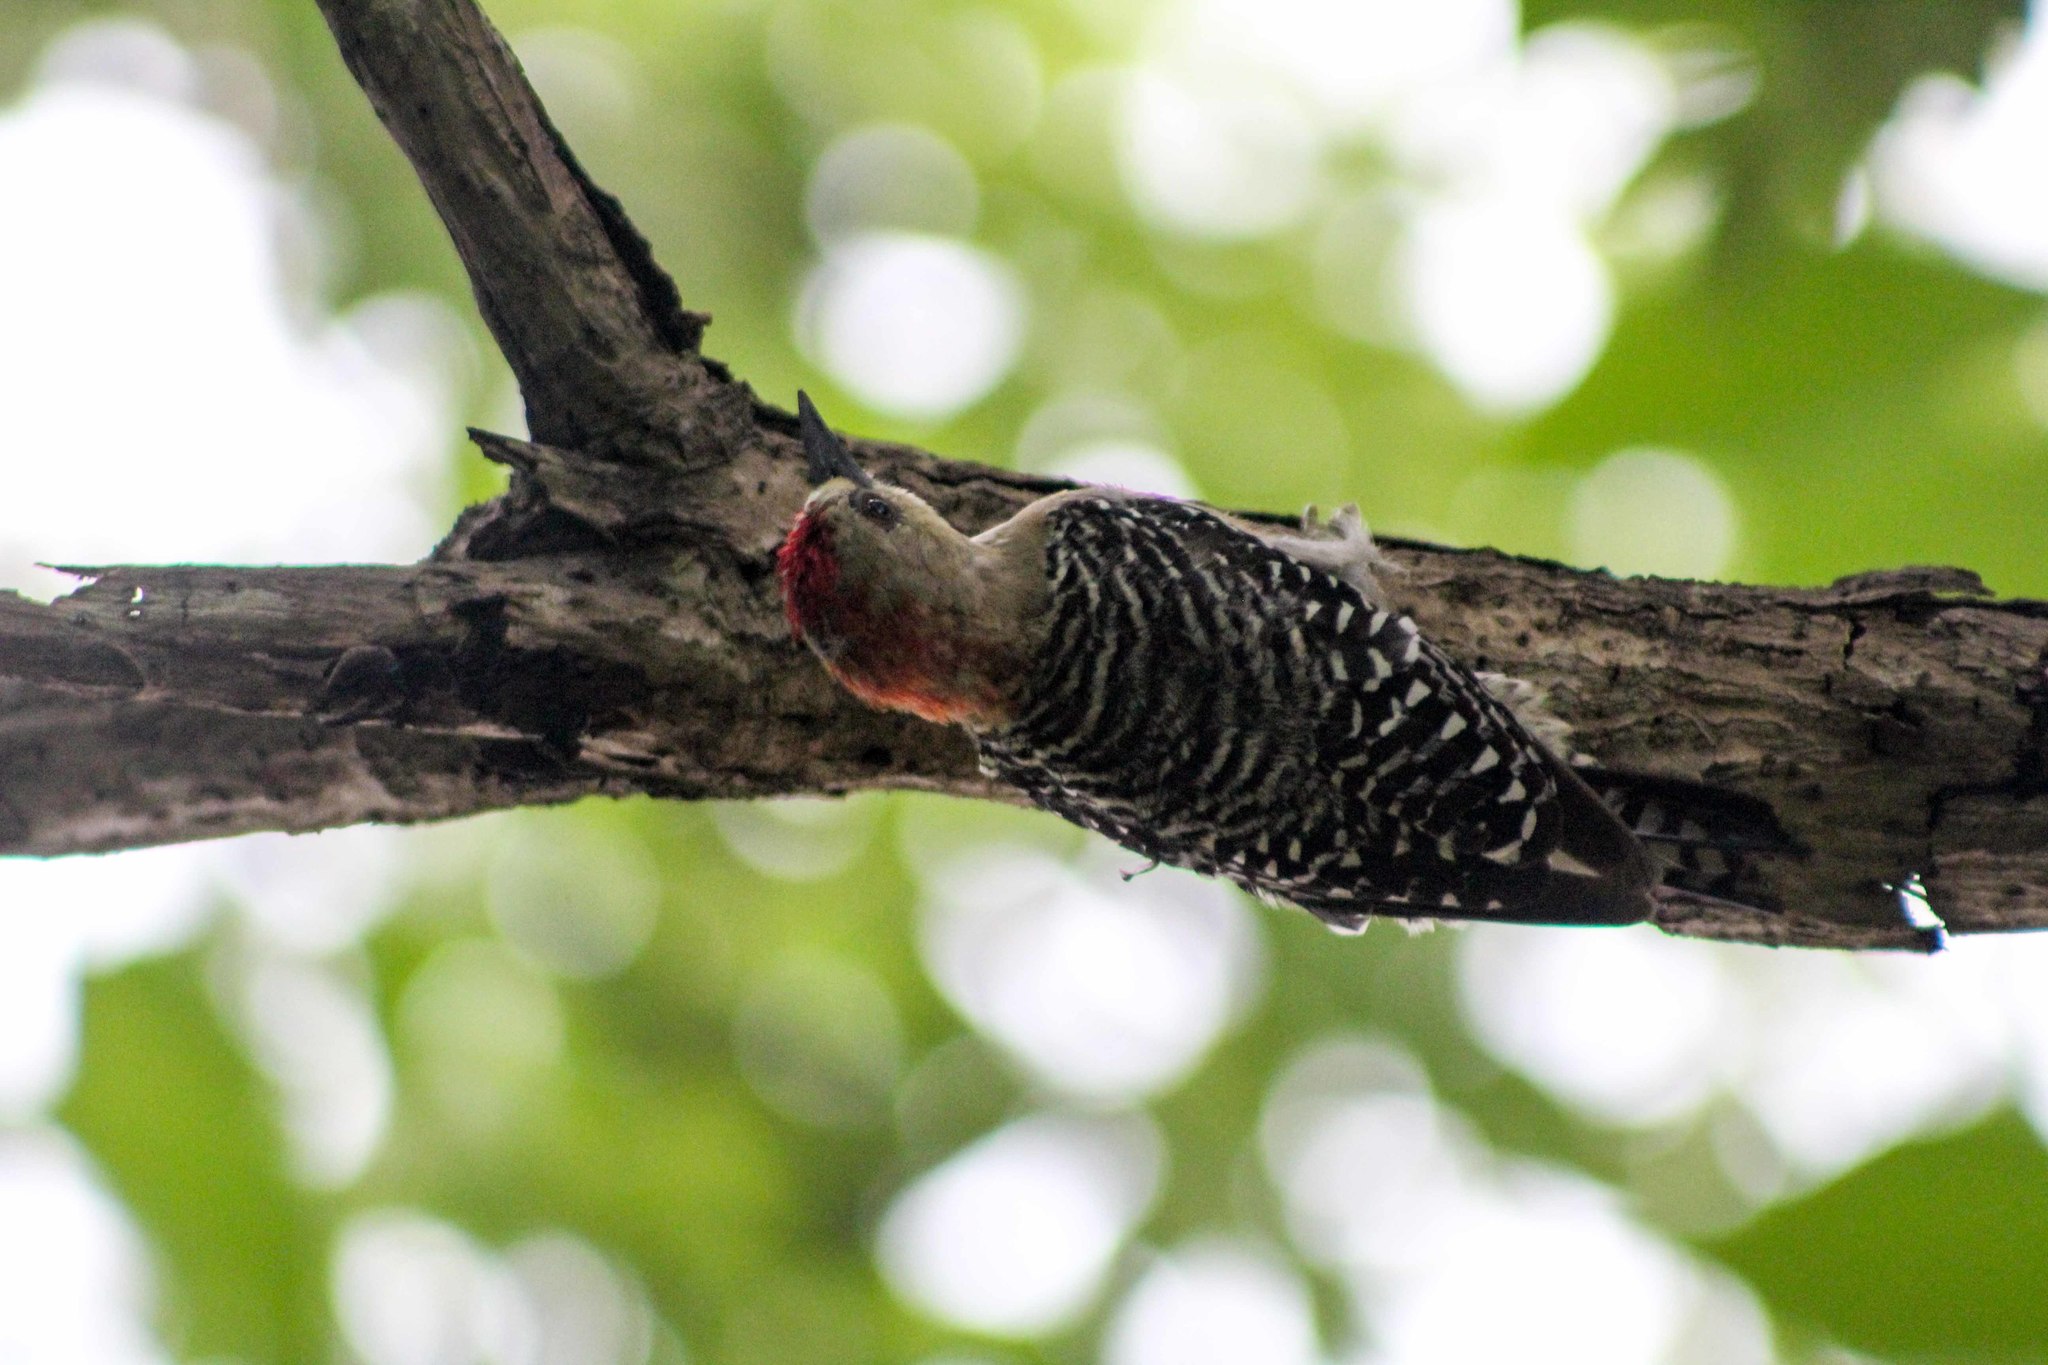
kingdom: Animalia
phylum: Chordata
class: Aves
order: Piciformes
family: Picidae
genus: Melanerpes
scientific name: Melanerpes rubricapillus
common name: Red-crowned woodpecker
